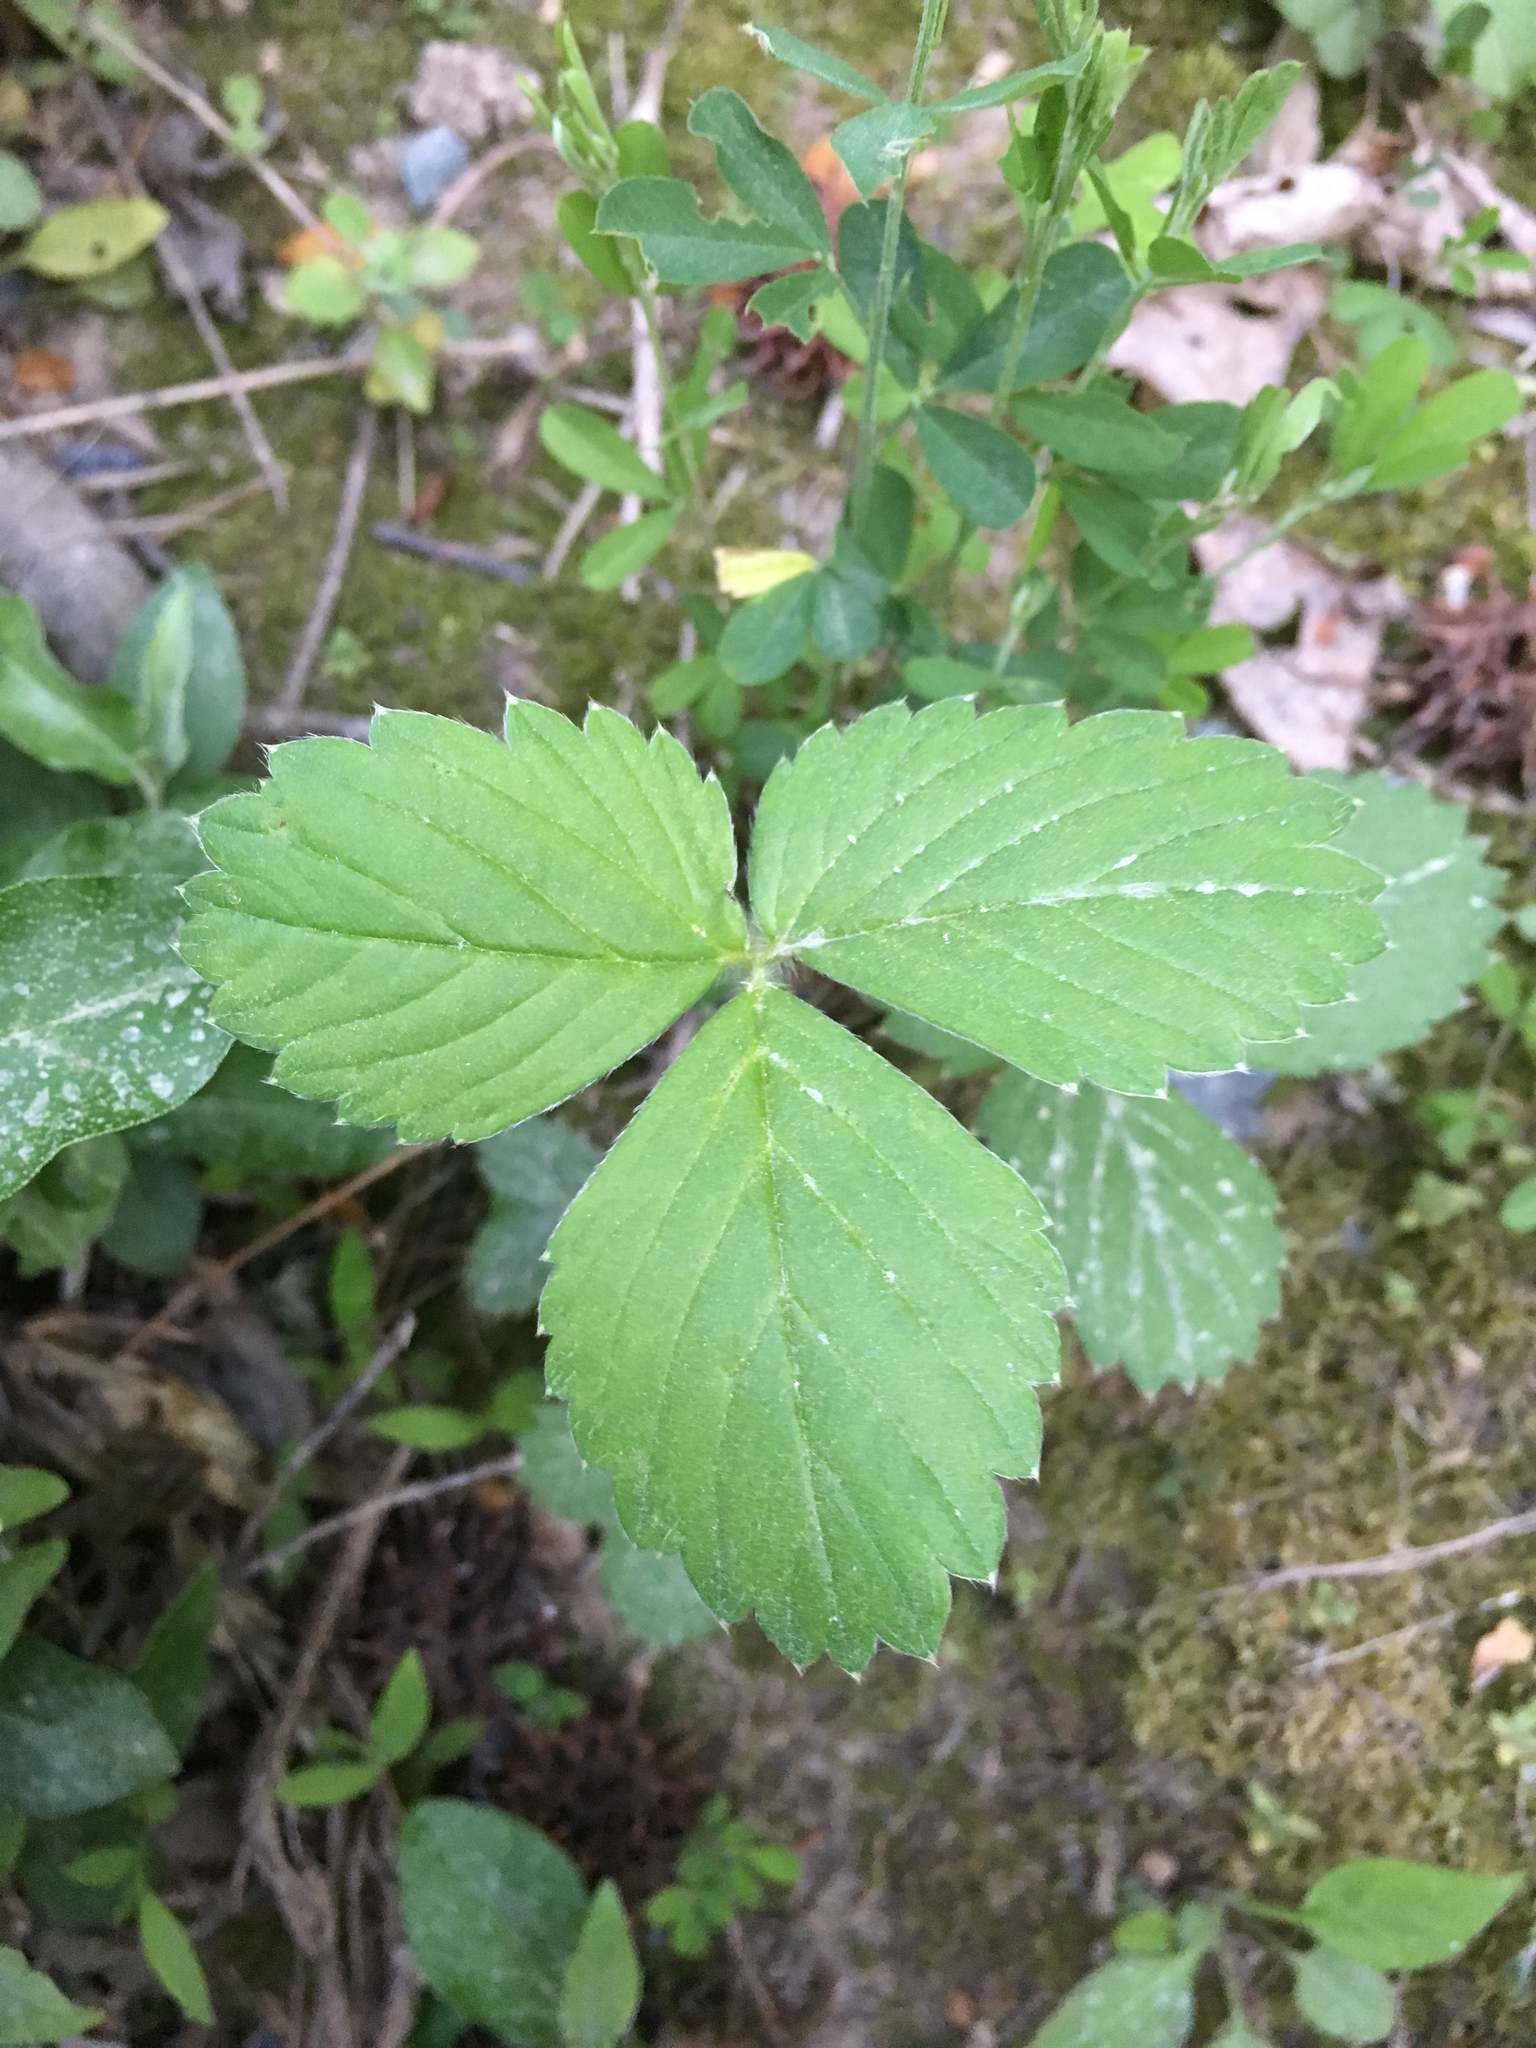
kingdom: Plantae
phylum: Tracheophyta
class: Magnoliopsida
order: Rosales
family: Rosaceae
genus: Fragaria
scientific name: Fragaria virginiana
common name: Thickleaved wild strawberry
